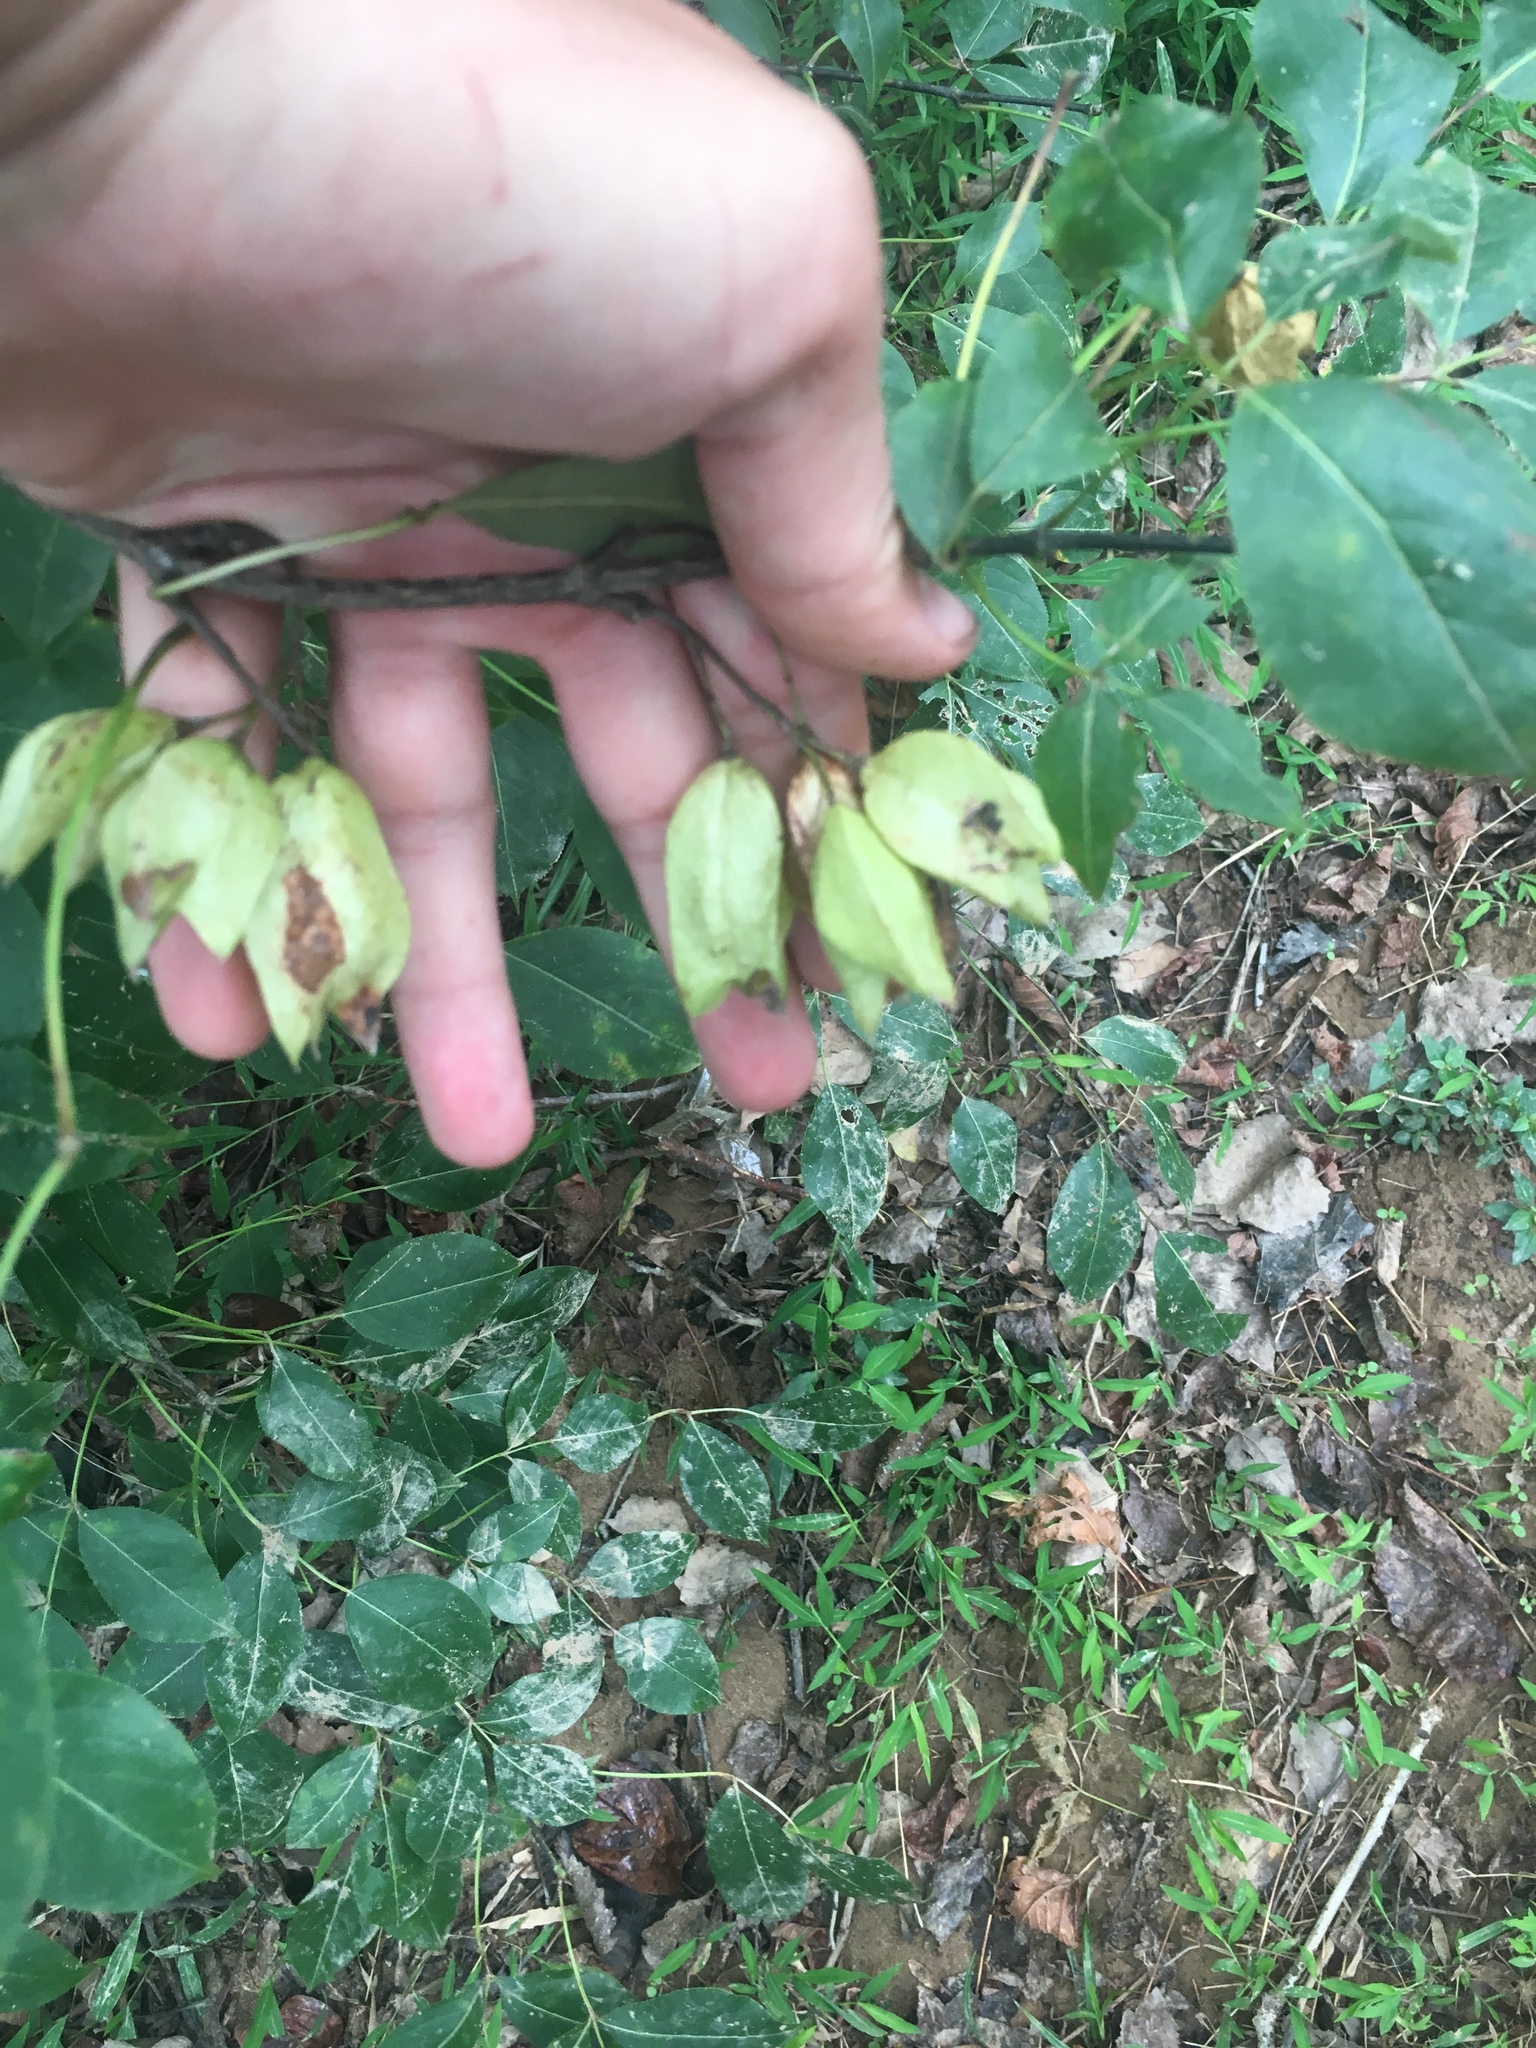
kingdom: Plantae
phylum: Tracheophyta
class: Magnoliopsida
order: Crossosomatales
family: Staphyleaceae
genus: Staphylea
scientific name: Staphylea trifolia
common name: American bladdernut
